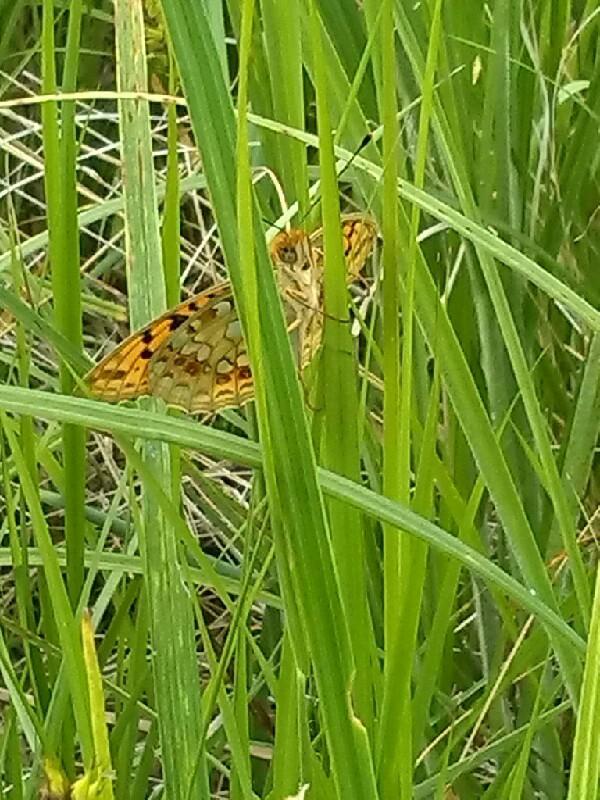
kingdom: Animalia
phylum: Arthropoda
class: Insecta
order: Lepidoptera
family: Nymphalidae
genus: Fabriciana
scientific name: Fabriciana adippe
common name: High brown fritillary
